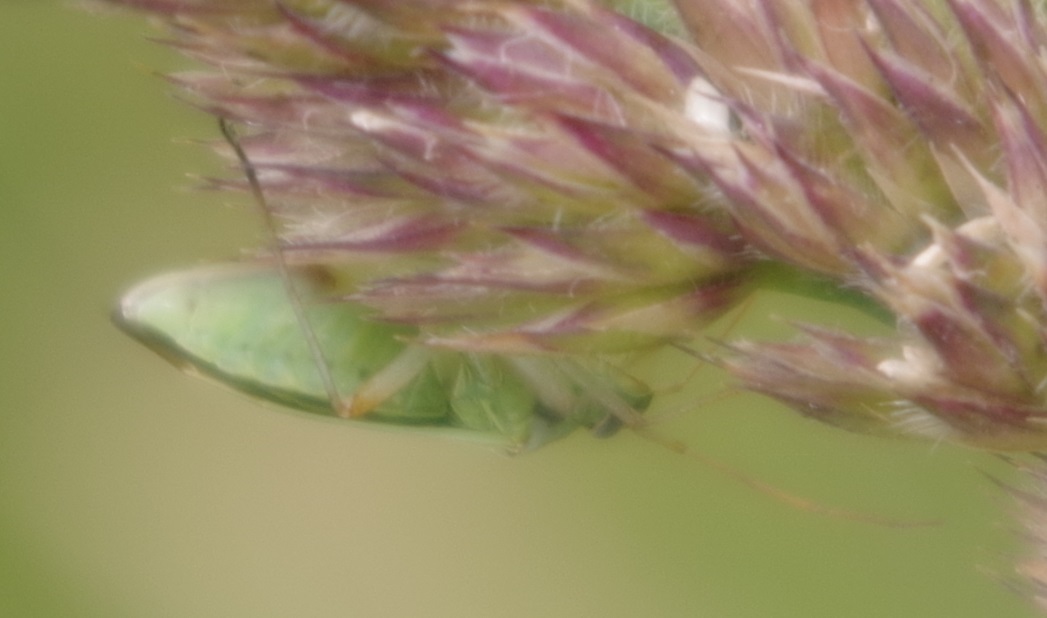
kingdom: Animalia
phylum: Arthropoda
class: Insecta
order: Hemiptera
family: Miridae
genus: Stenotus
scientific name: Stenotus binotatus
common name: Plant bug
